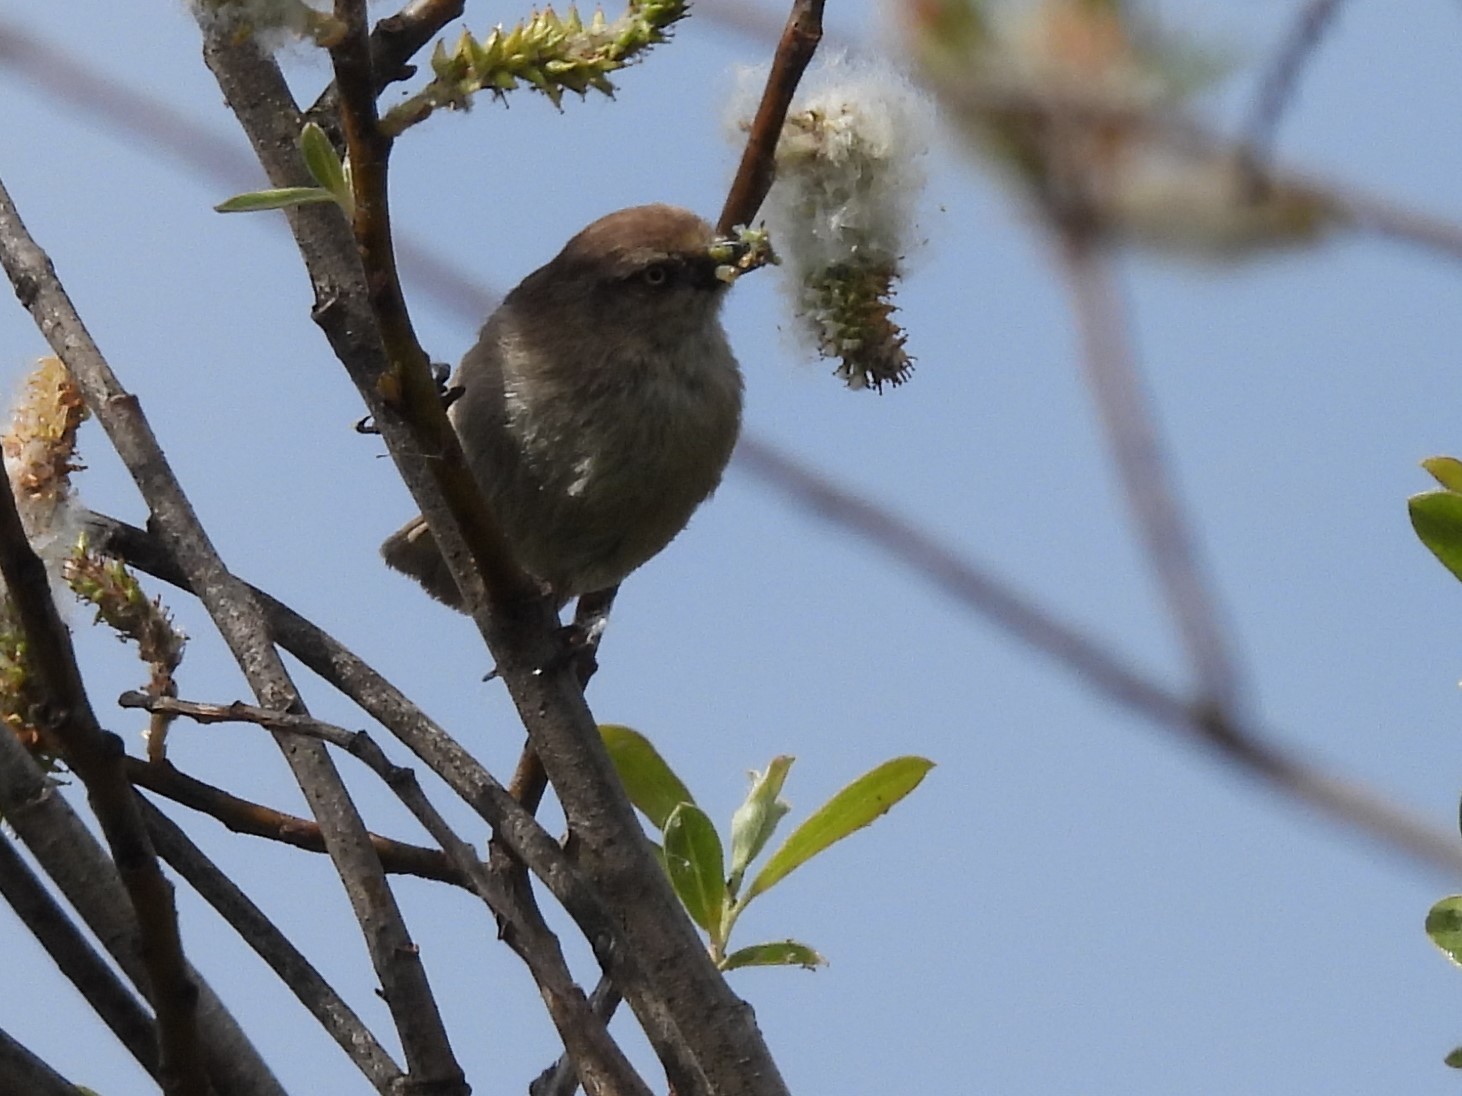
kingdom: Animalia
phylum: Chordata
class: Aves
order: Passeriformes
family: Aegithalidae
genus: Psaltriparus
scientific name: Psaltriparus minimus
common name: American bushtit
